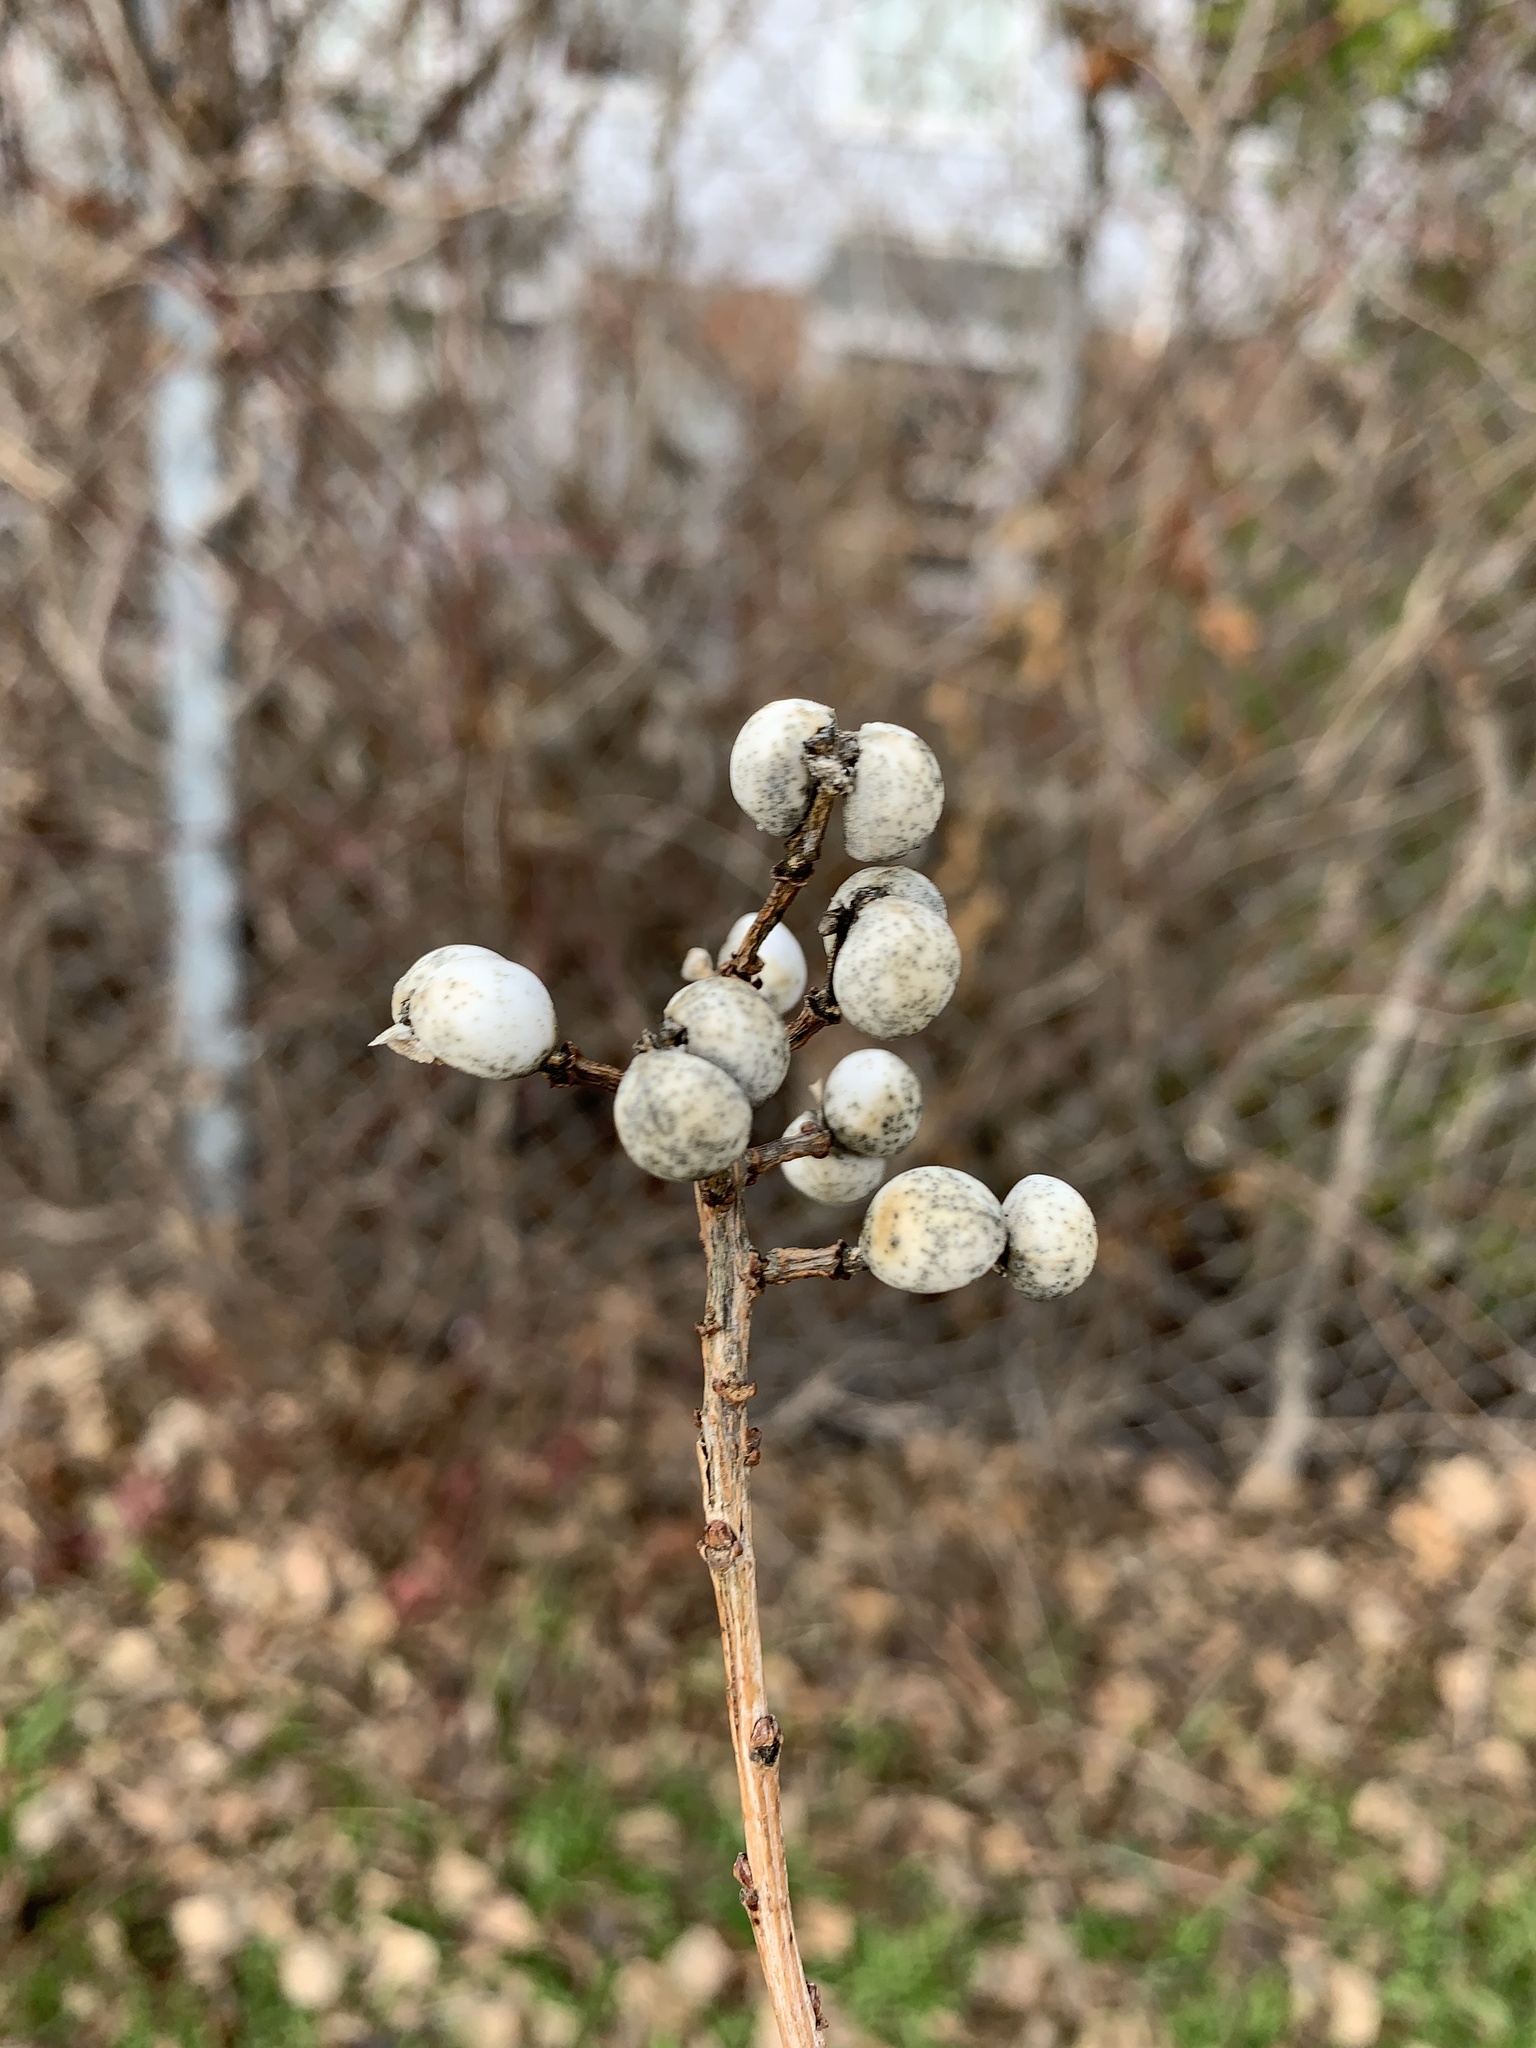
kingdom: Plantae
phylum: Tracheophyta
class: Magnoliopsida
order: Malpighiales
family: Euphorbiaceae
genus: Triadica
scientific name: Triadica sebifera
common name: Chinese tallow
